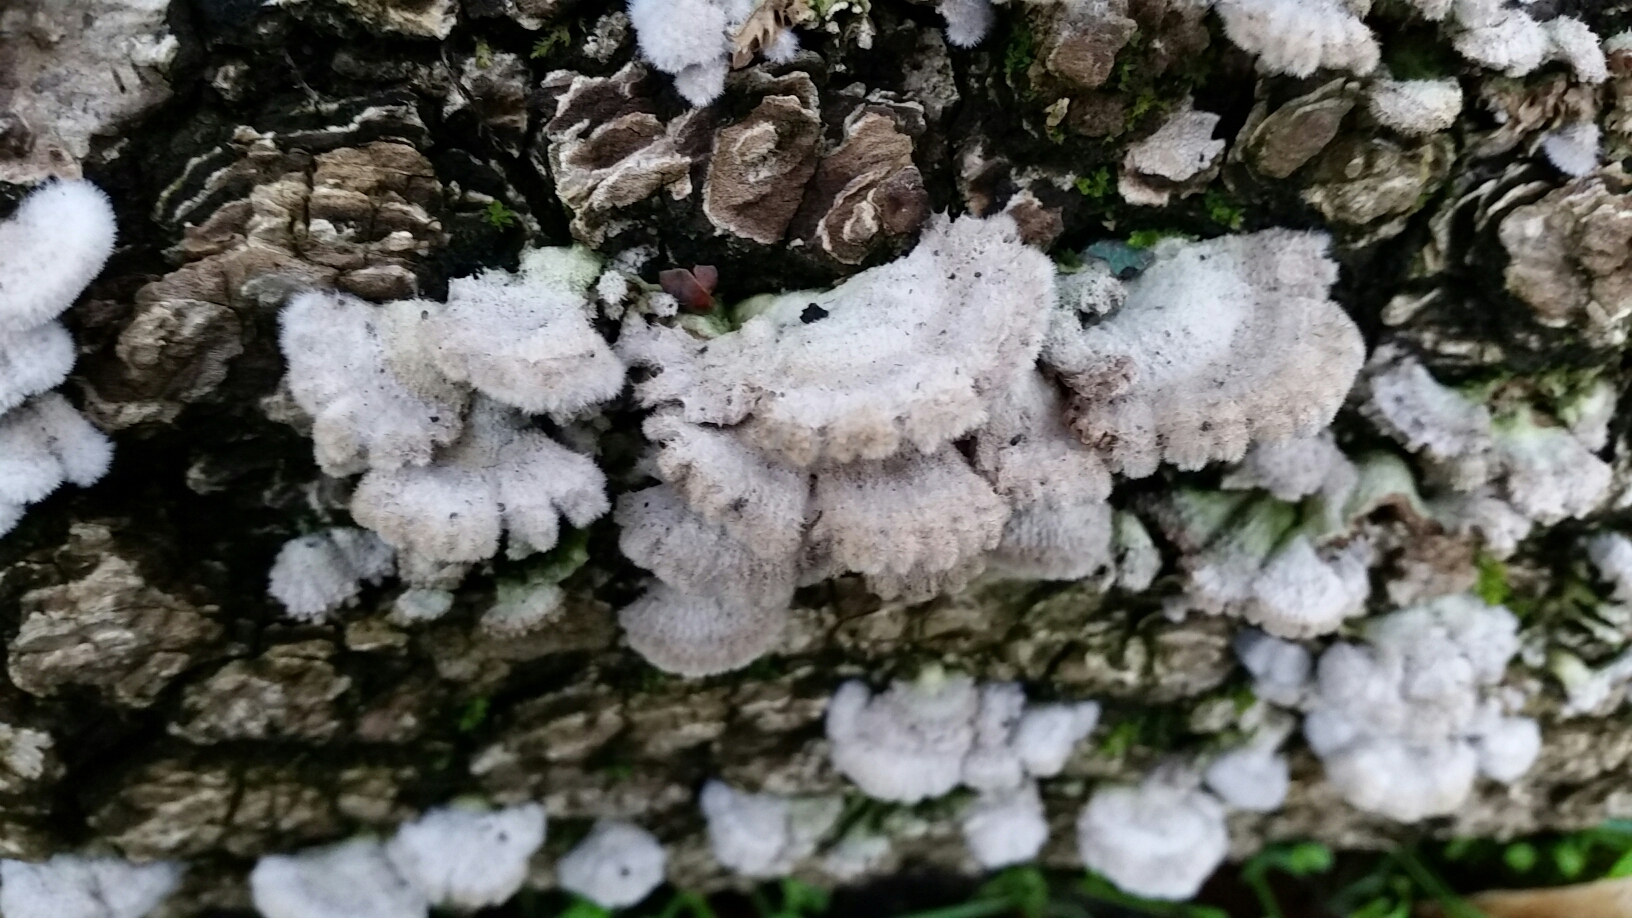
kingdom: Fungi
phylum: Basidiomycota
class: Agaricomycetes
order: Agaricales
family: Schizophyllaceae
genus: Schizophyllum
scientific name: Schizophyllum commune
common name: Common porecrust
